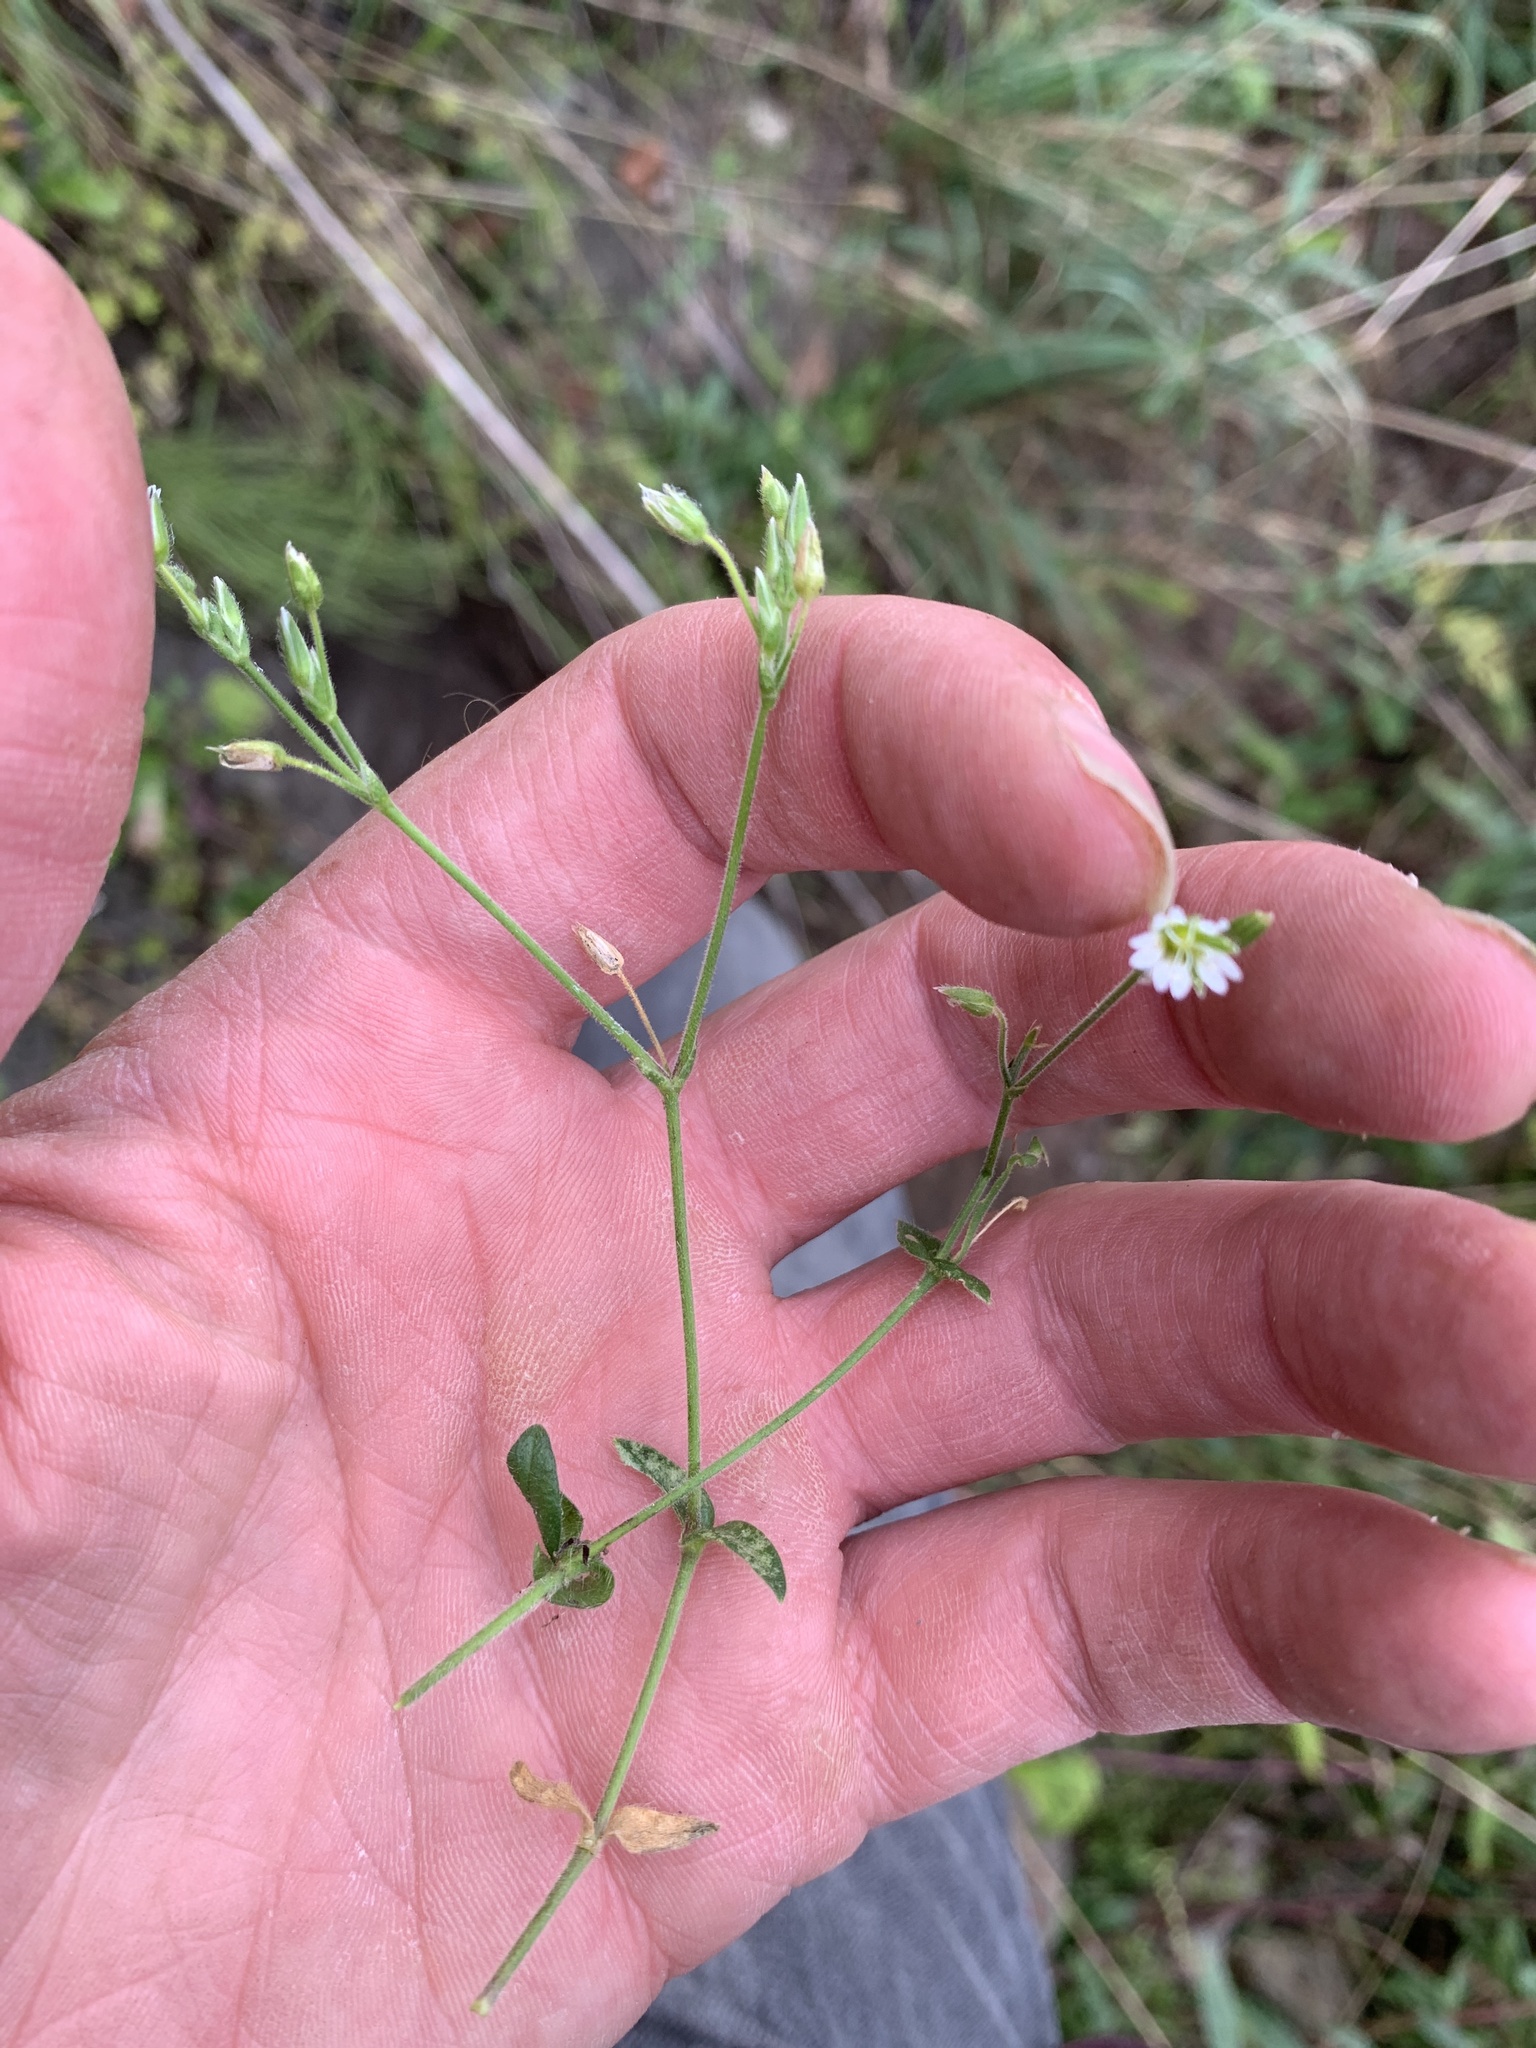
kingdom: Plantae
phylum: Tracheophyta
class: Magnoliopsida
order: Caryophyllales
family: Caryophyllaceae
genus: Cerastium
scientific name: Cerastium fontanum
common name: Common mouse-ear
